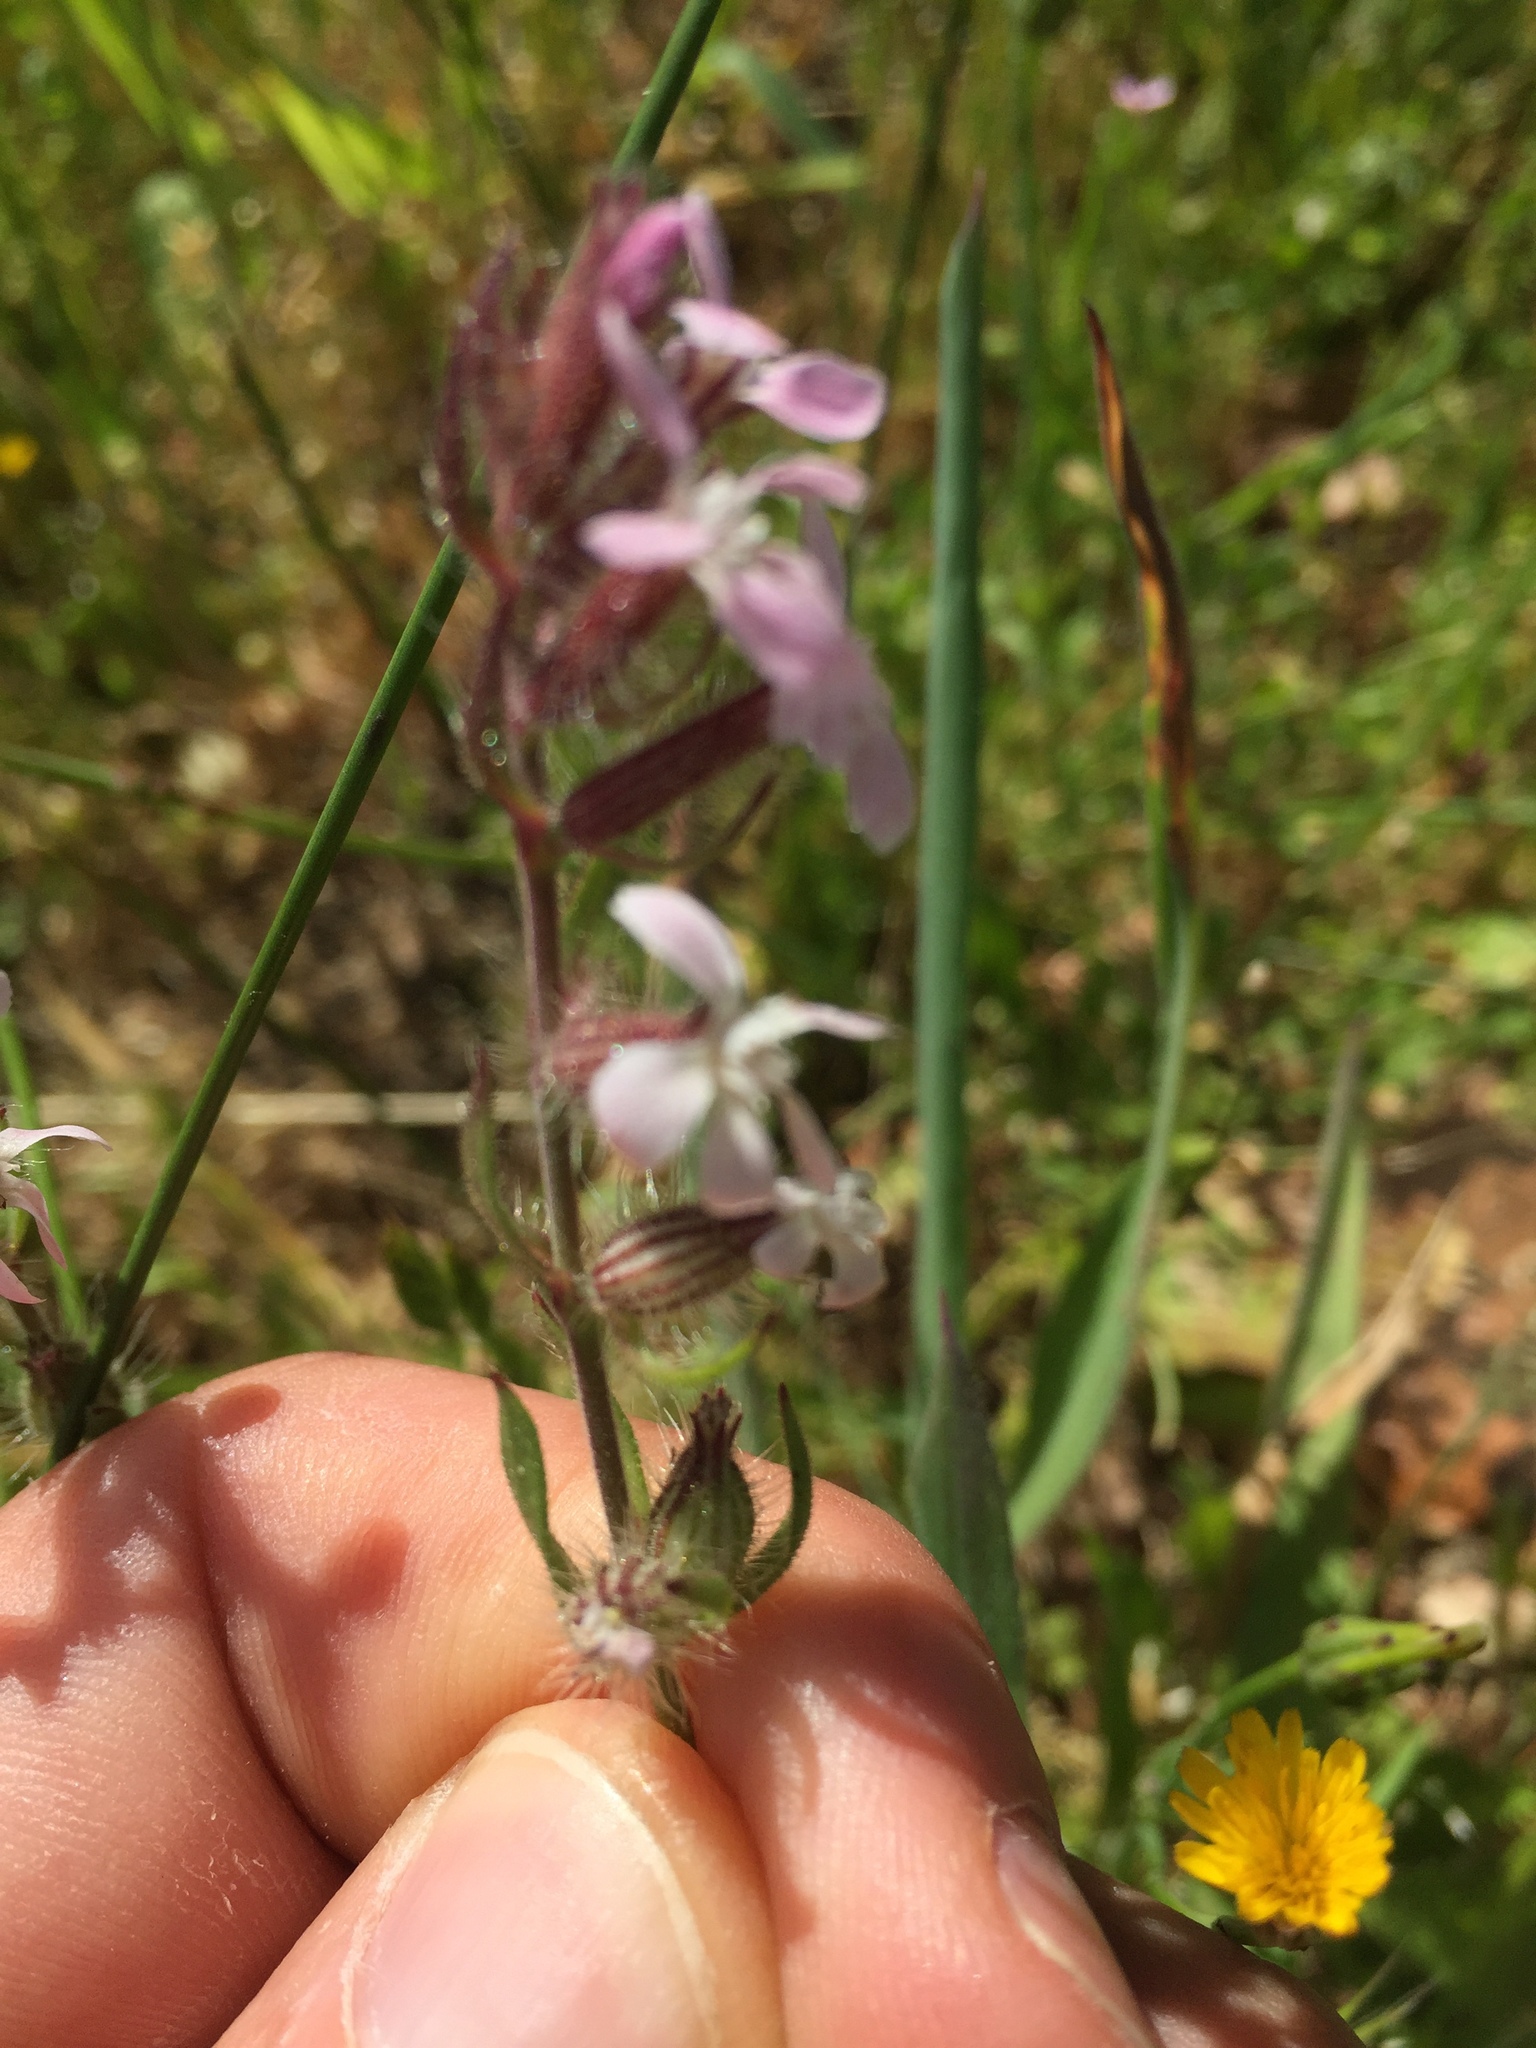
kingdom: Plantae
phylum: Tracheophyta
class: Magnoliopsida
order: Caryophyllales
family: Caryophyllaceae
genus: Silene
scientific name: Silene gallica
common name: Small-flowered catchfly
